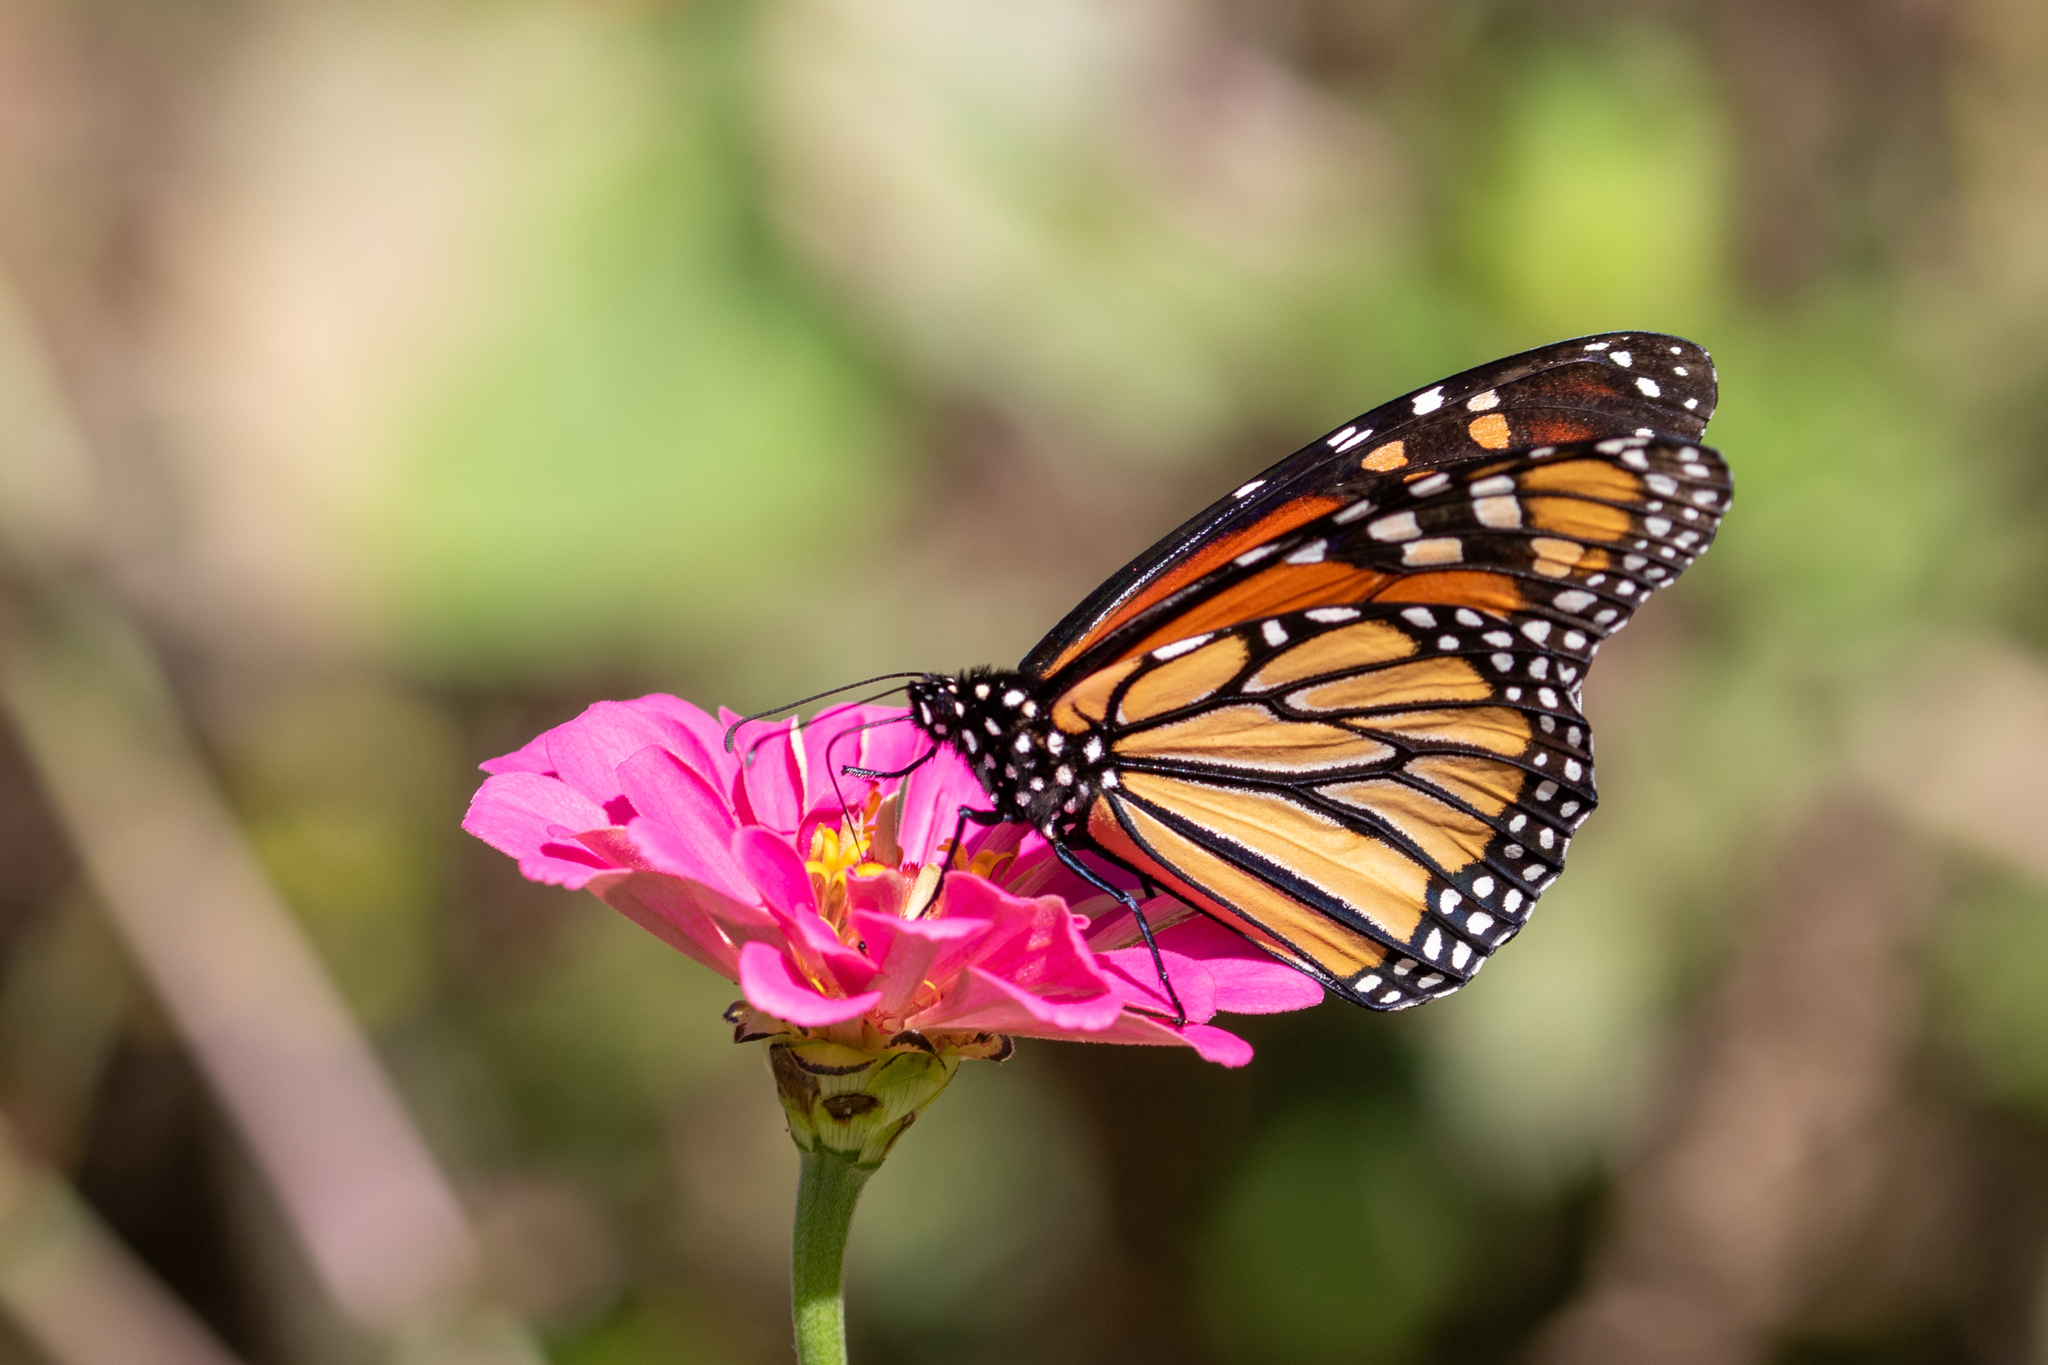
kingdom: Animalia
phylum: Arthropoda
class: Insecta
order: Lepidoptera
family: Nymphalidae
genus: Danaus
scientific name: Danaus plexippus
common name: Monarch
